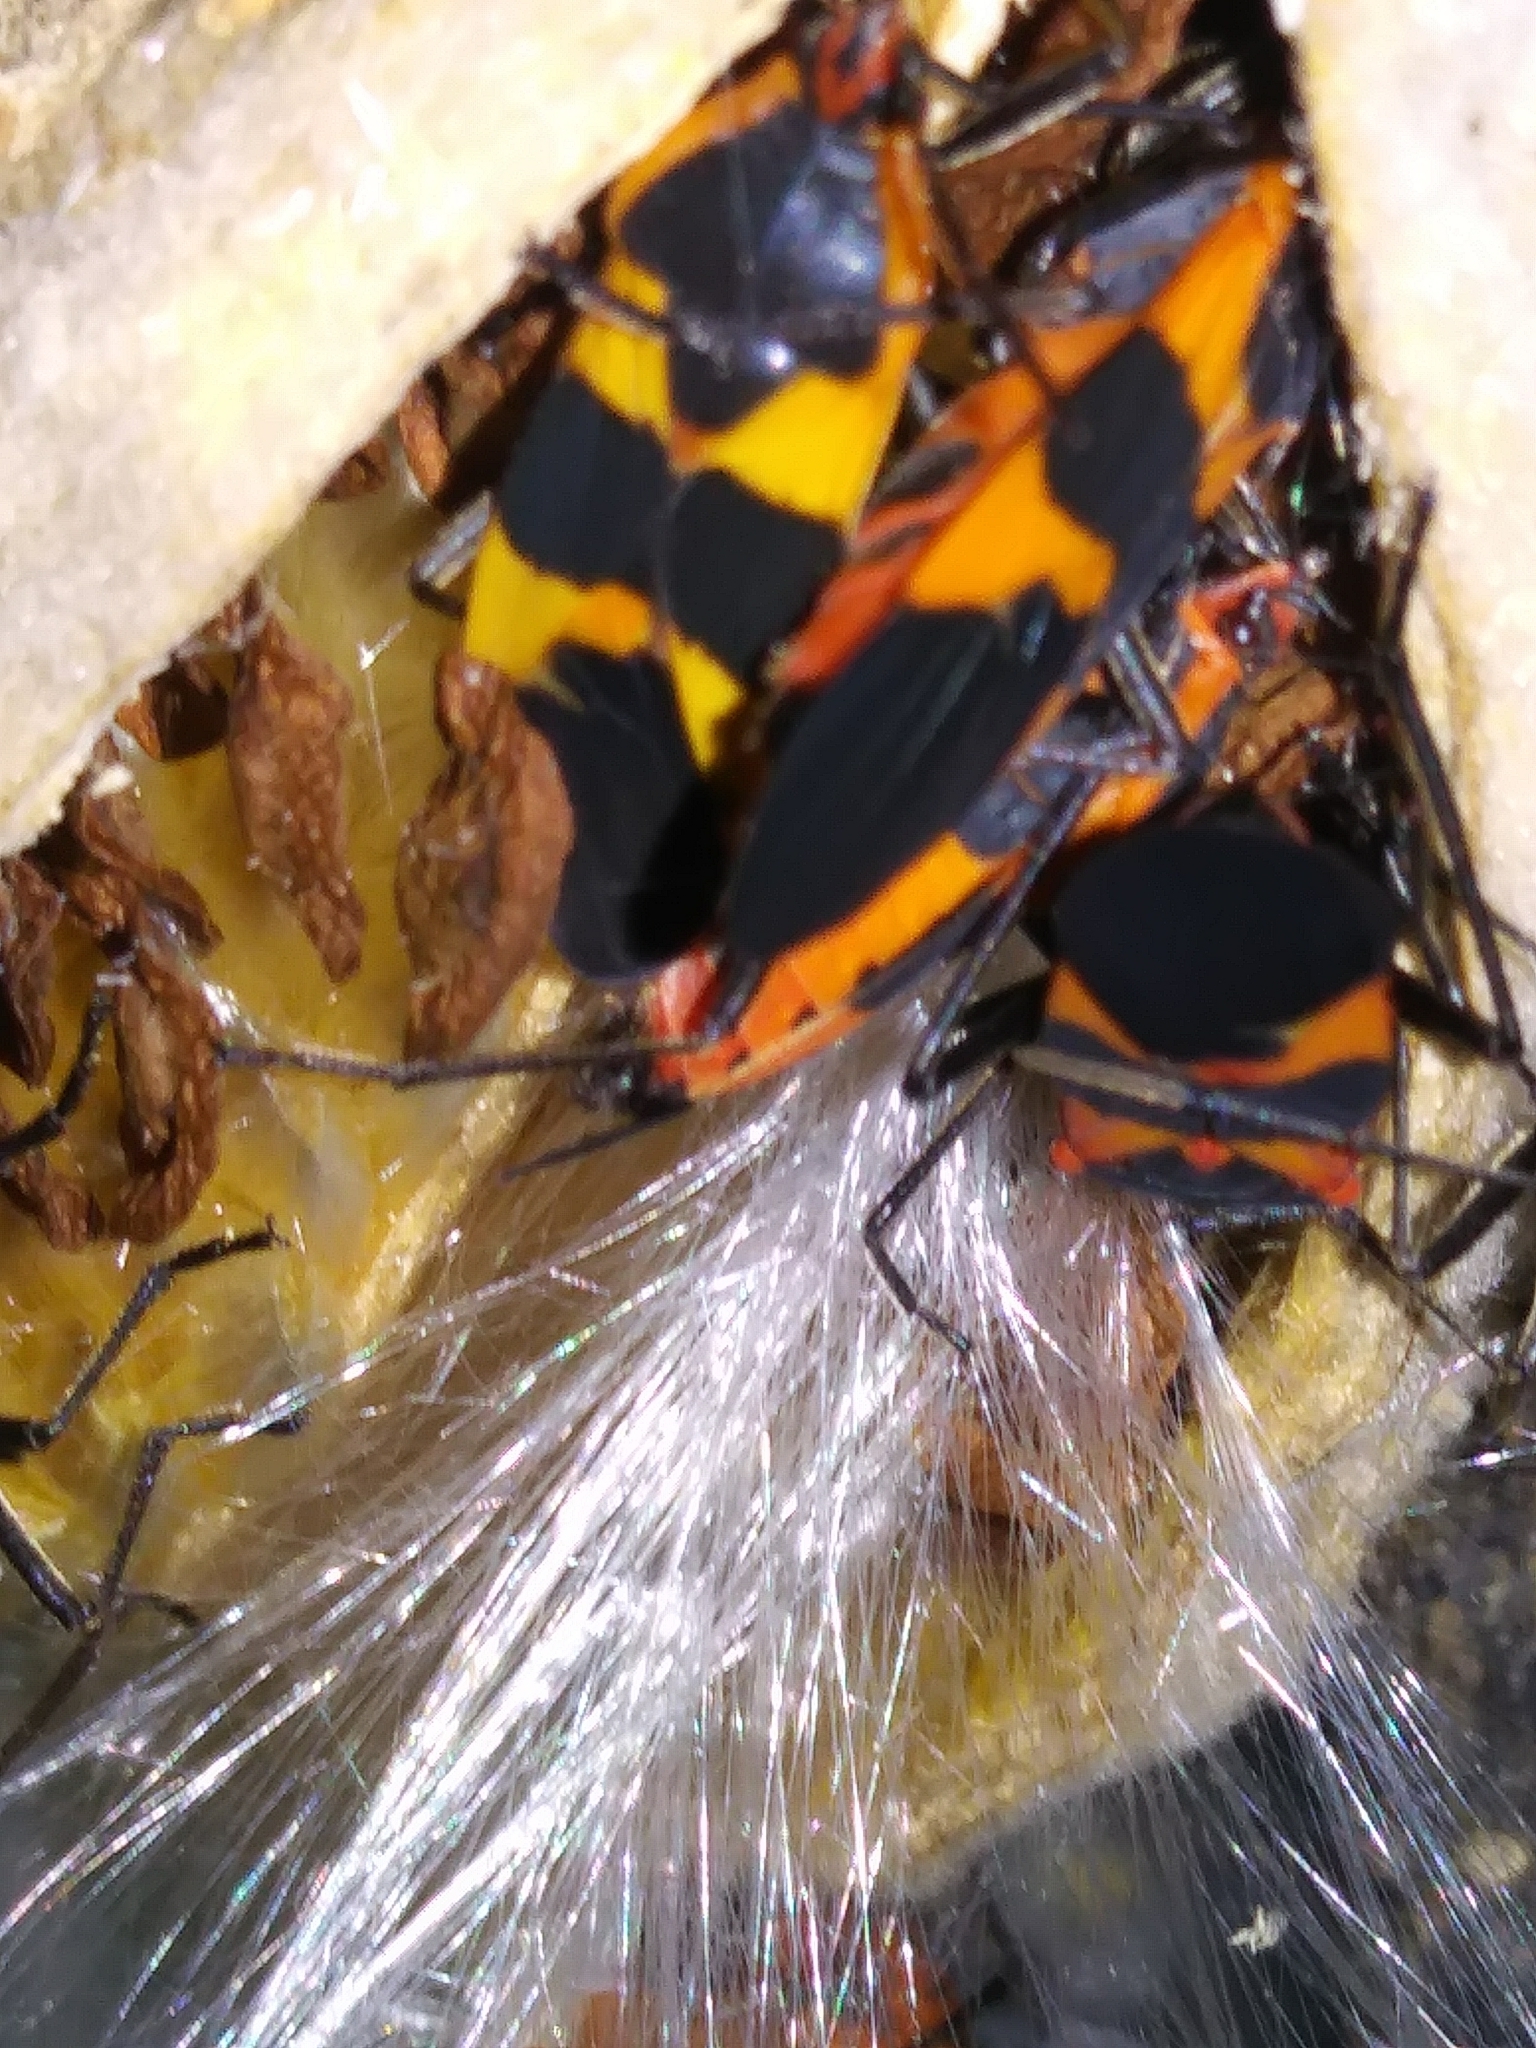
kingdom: Animalia
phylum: Arthropoda
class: Insecta
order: Hemiptera
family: Lygaeidae
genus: Oncopeltus
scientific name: Oncopeltus fasciatus
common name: Large milkweed bug
